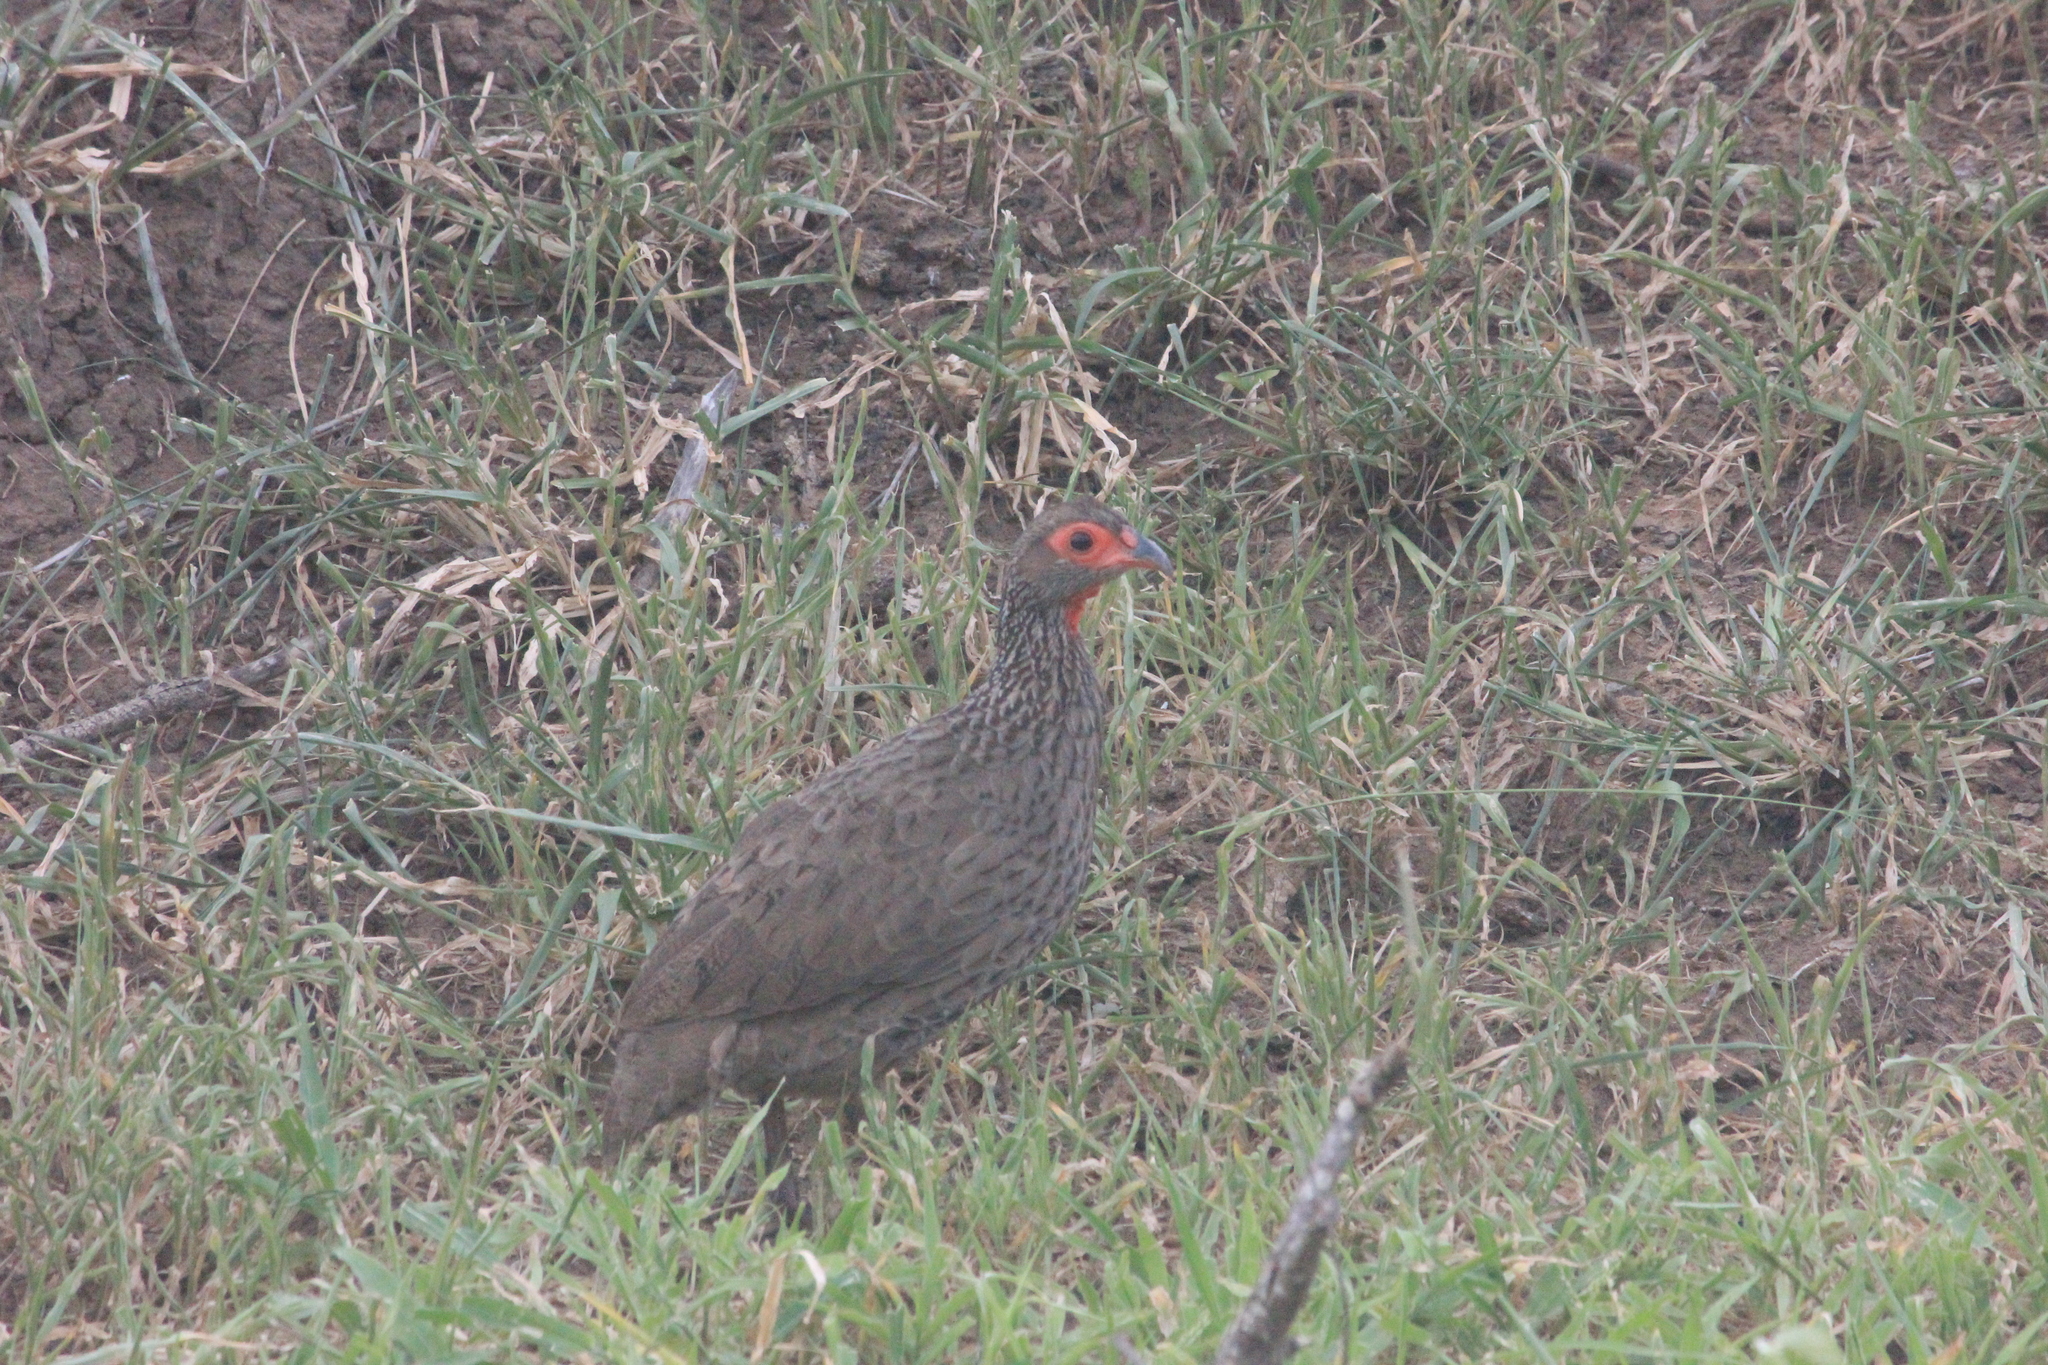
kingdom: Animalia
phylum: Chordata
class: Aves
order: Galliformes
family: Phasianidae
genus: Pternistis
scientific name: Pternistis swainsonii
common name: Swainson's spurfowl
